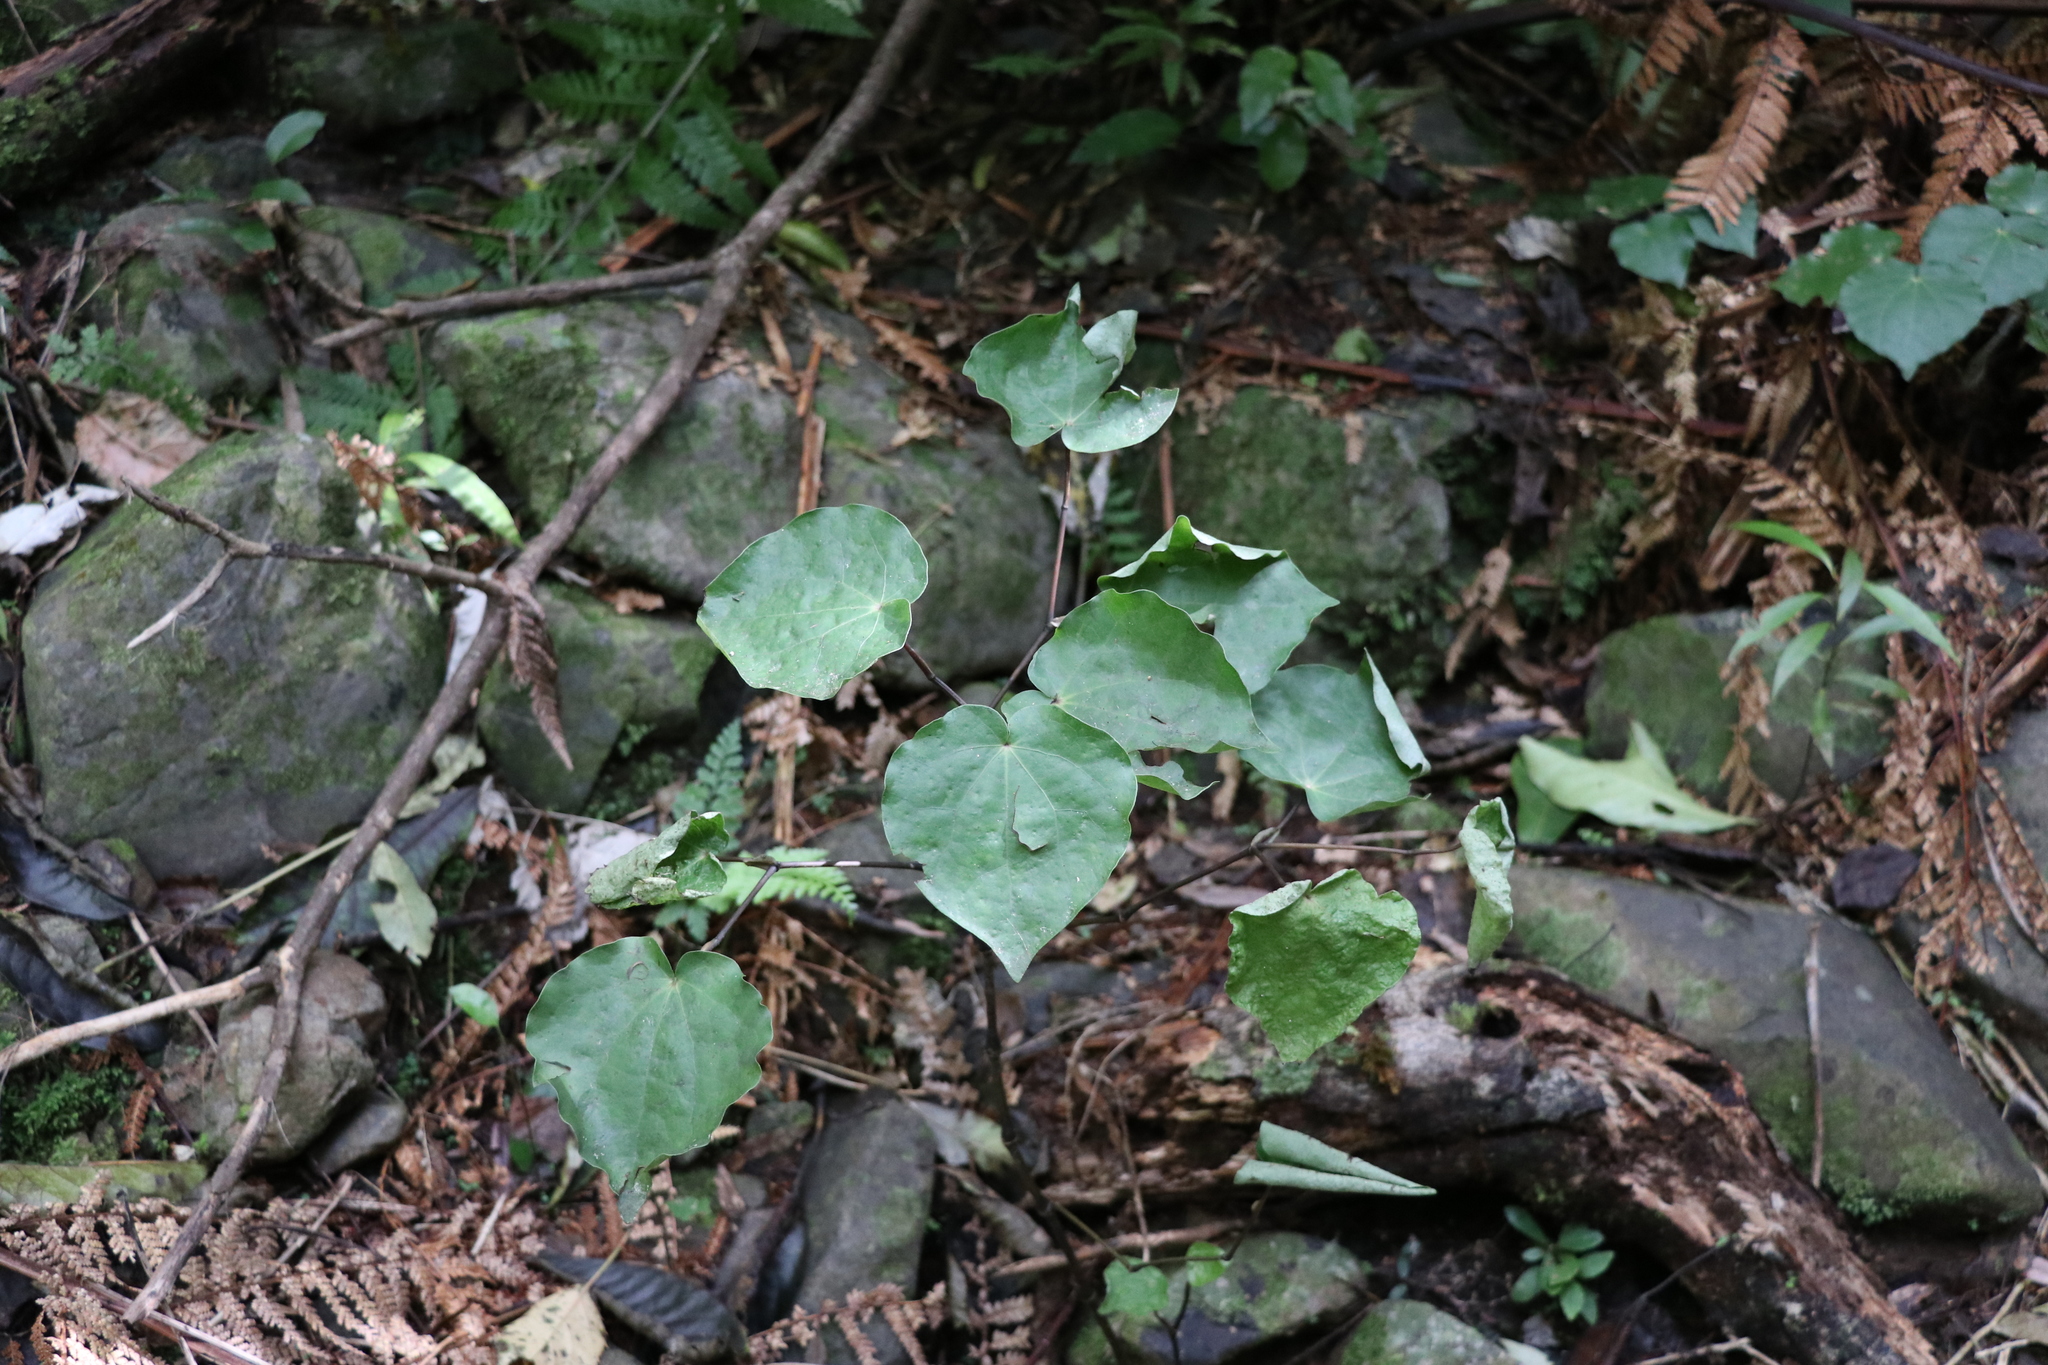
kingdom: Plantae
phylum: Tracheophyta
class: Magnoliopsida
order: Piperales
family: Piperaceae
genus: Macropiper
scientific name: Macropiper excelsum
